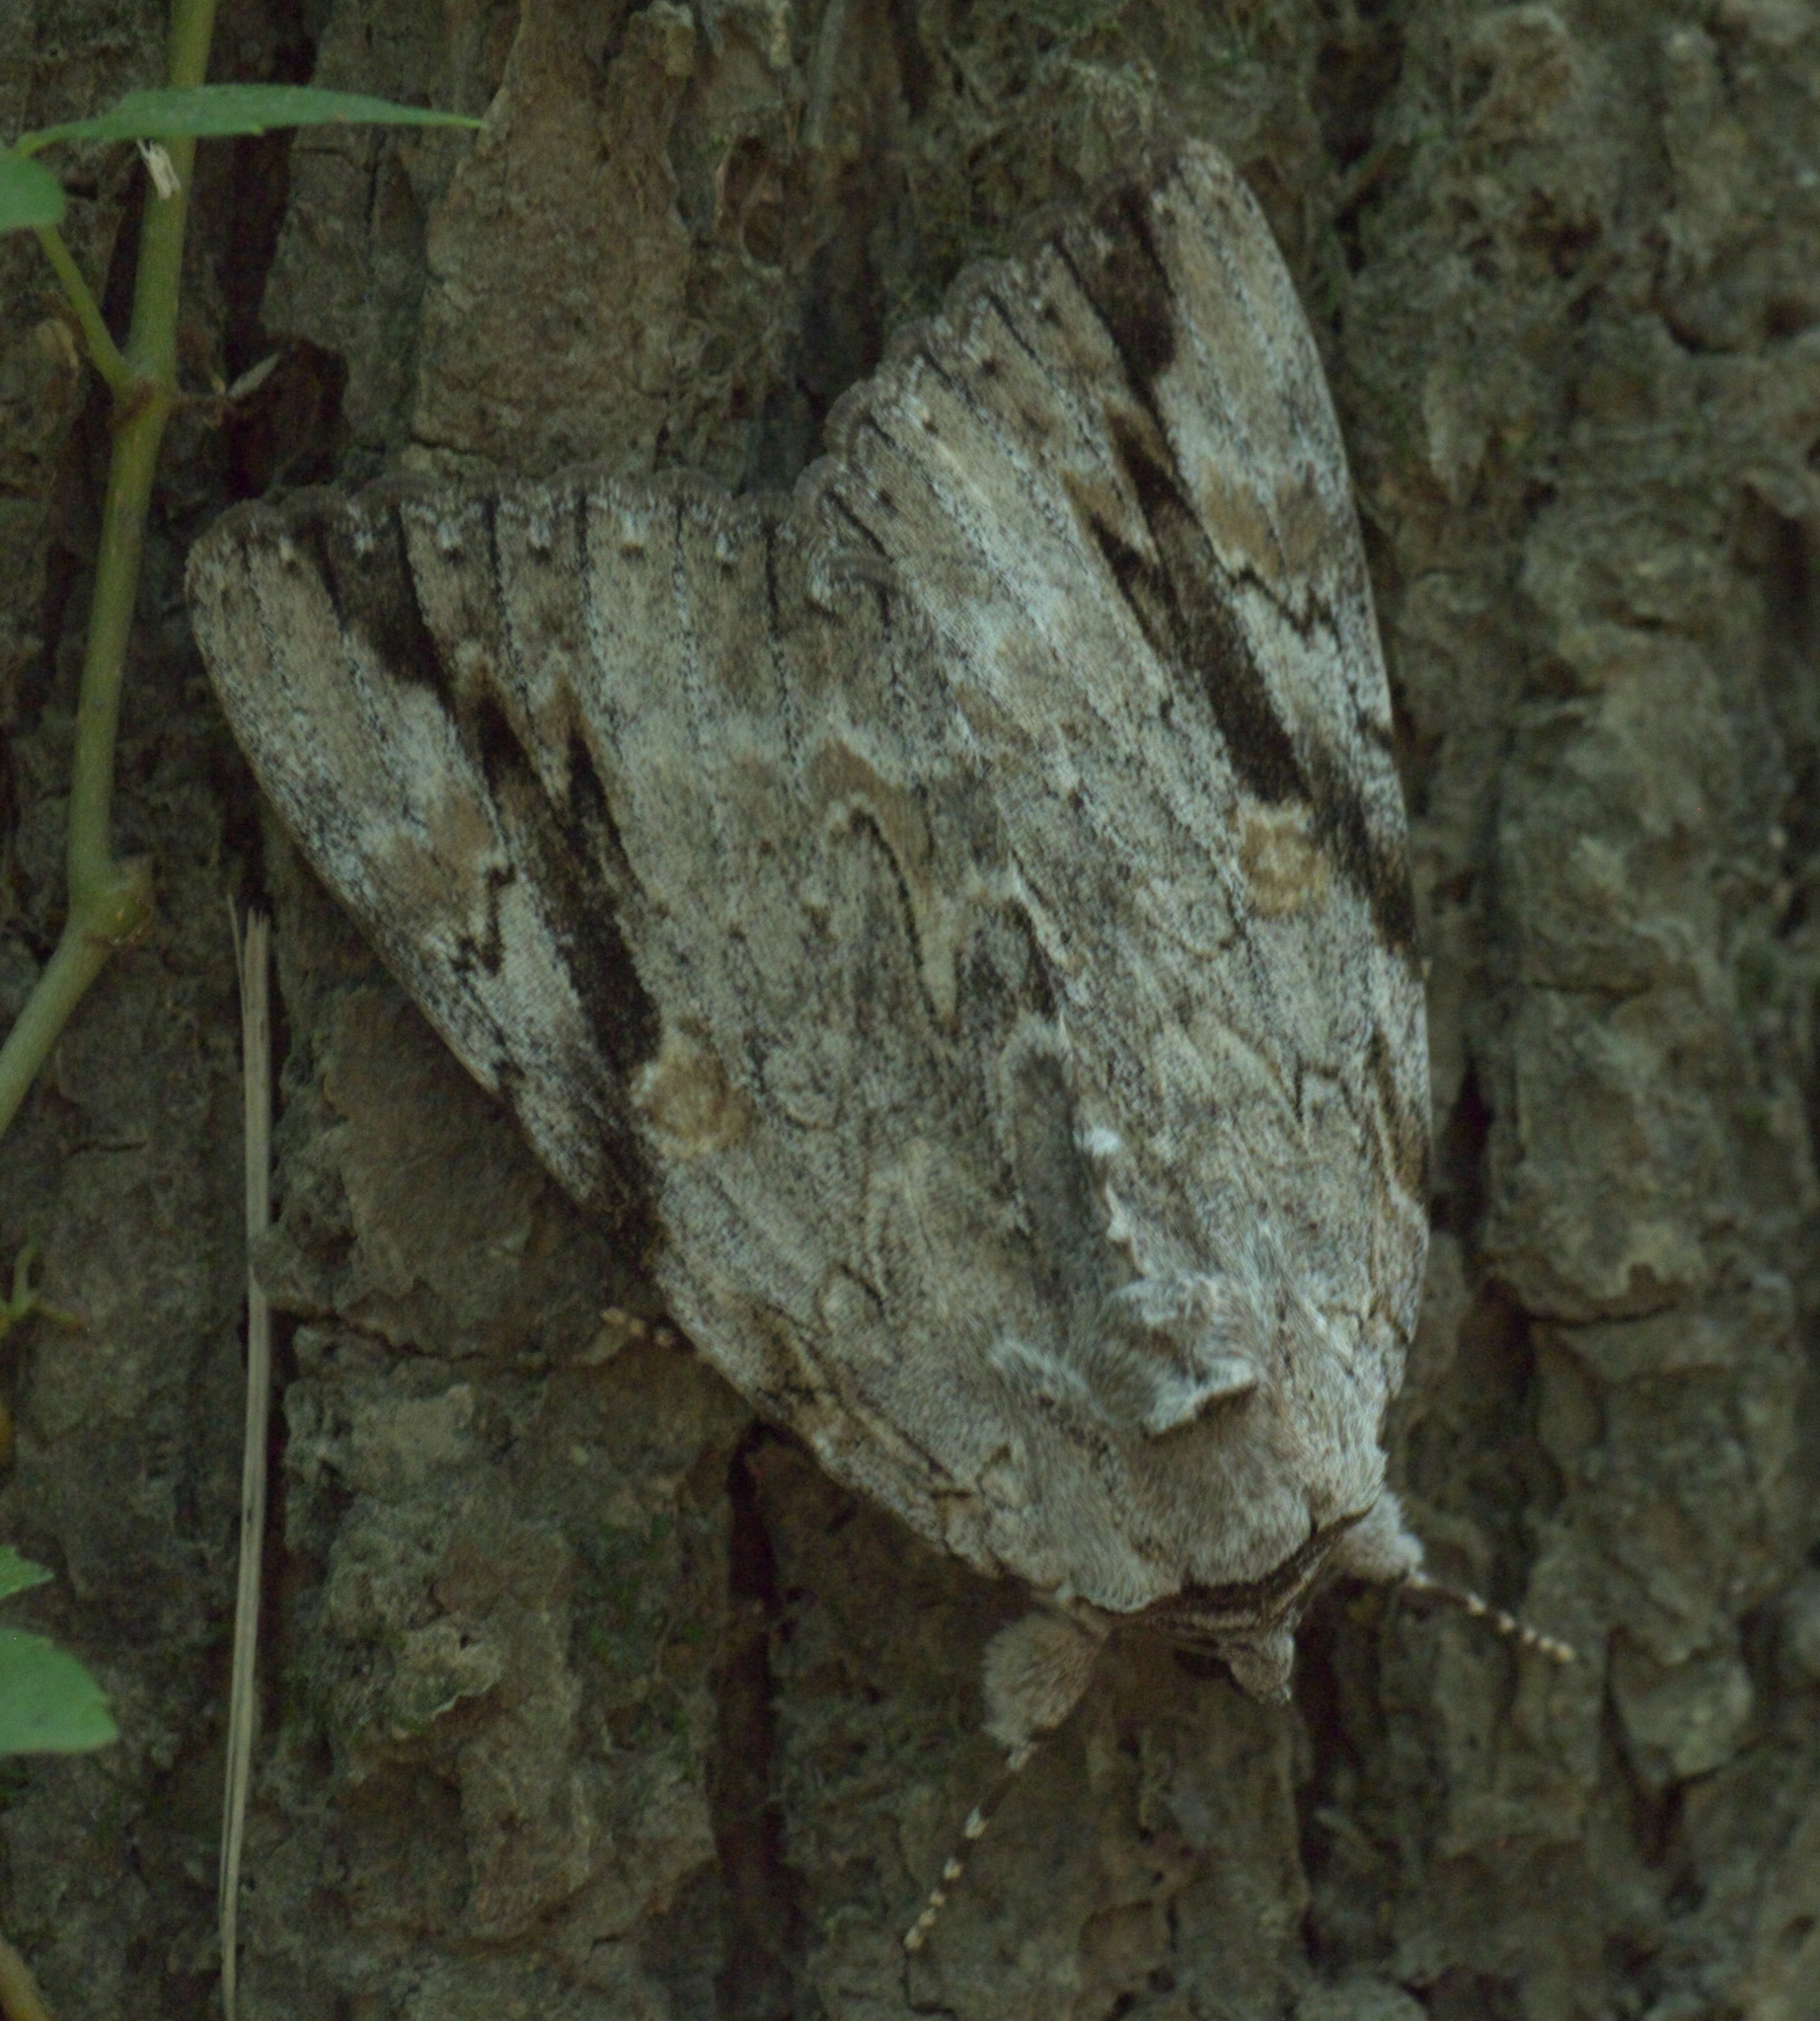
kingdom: Animalia
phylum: Arthropoda
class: Insecta
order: Lepidoptera
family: Erebidae
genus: Catocala
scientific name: Catocala maestosa
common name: Sad underwing
